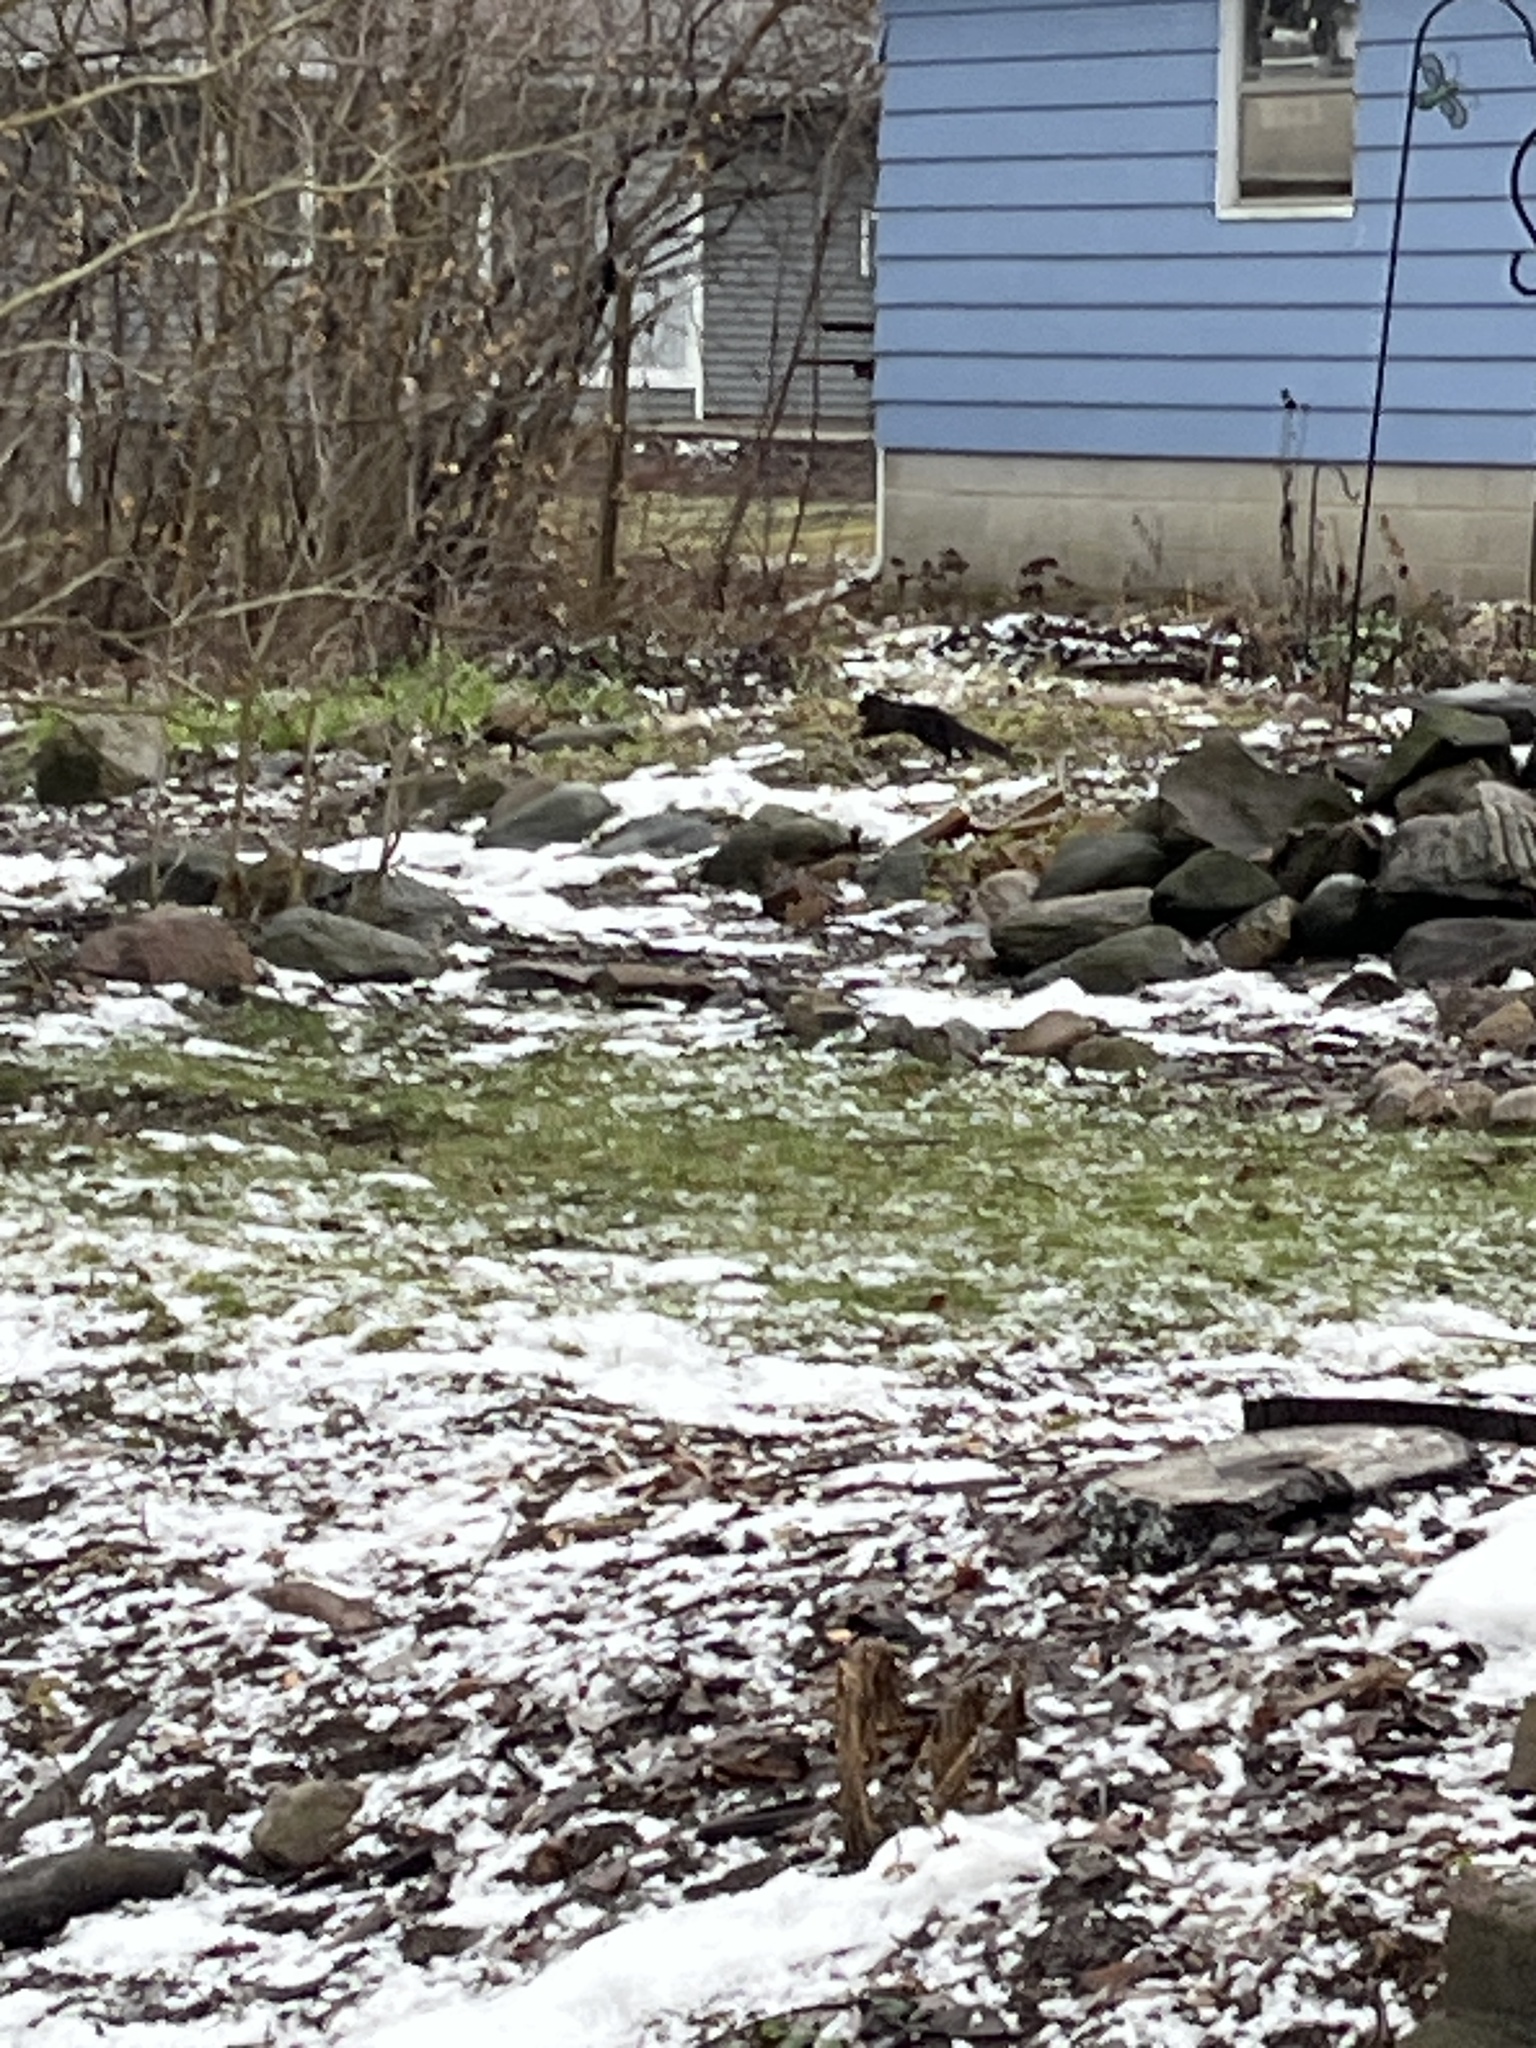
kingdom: Animalia
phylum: Chordata
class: Mammalia
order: Rodentia
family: Sciuridae
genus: Sciurus
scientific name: Sciurus carolinensis
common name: Eastern gray squirrel
